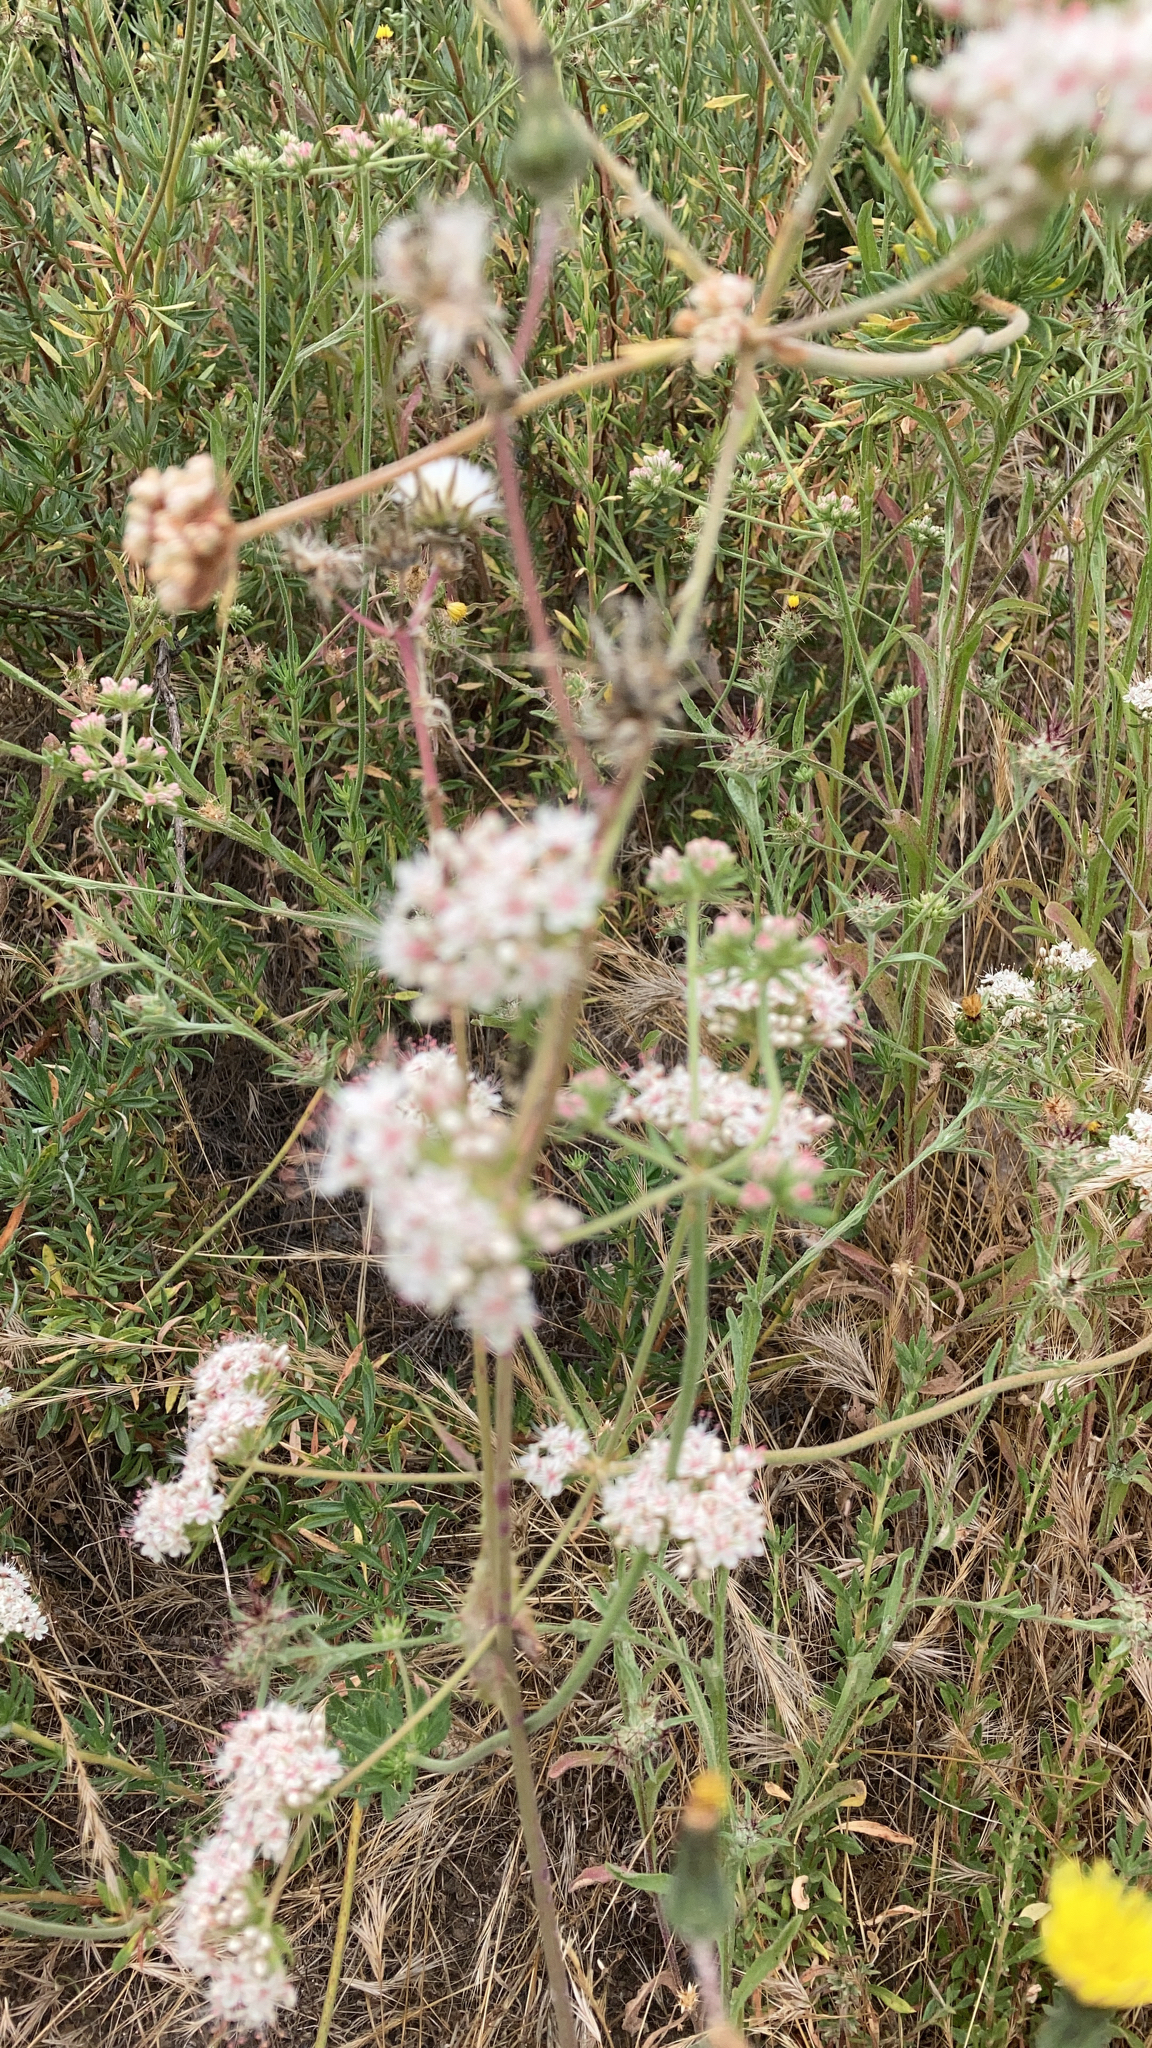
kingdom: Plantae
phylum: Tracheophyta
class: Magnoliopsida
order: Caryophyllales
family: Polygonaceae
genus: Eriogonum
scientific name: Eriogonum fasciculatum
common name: California wild buckwheat
